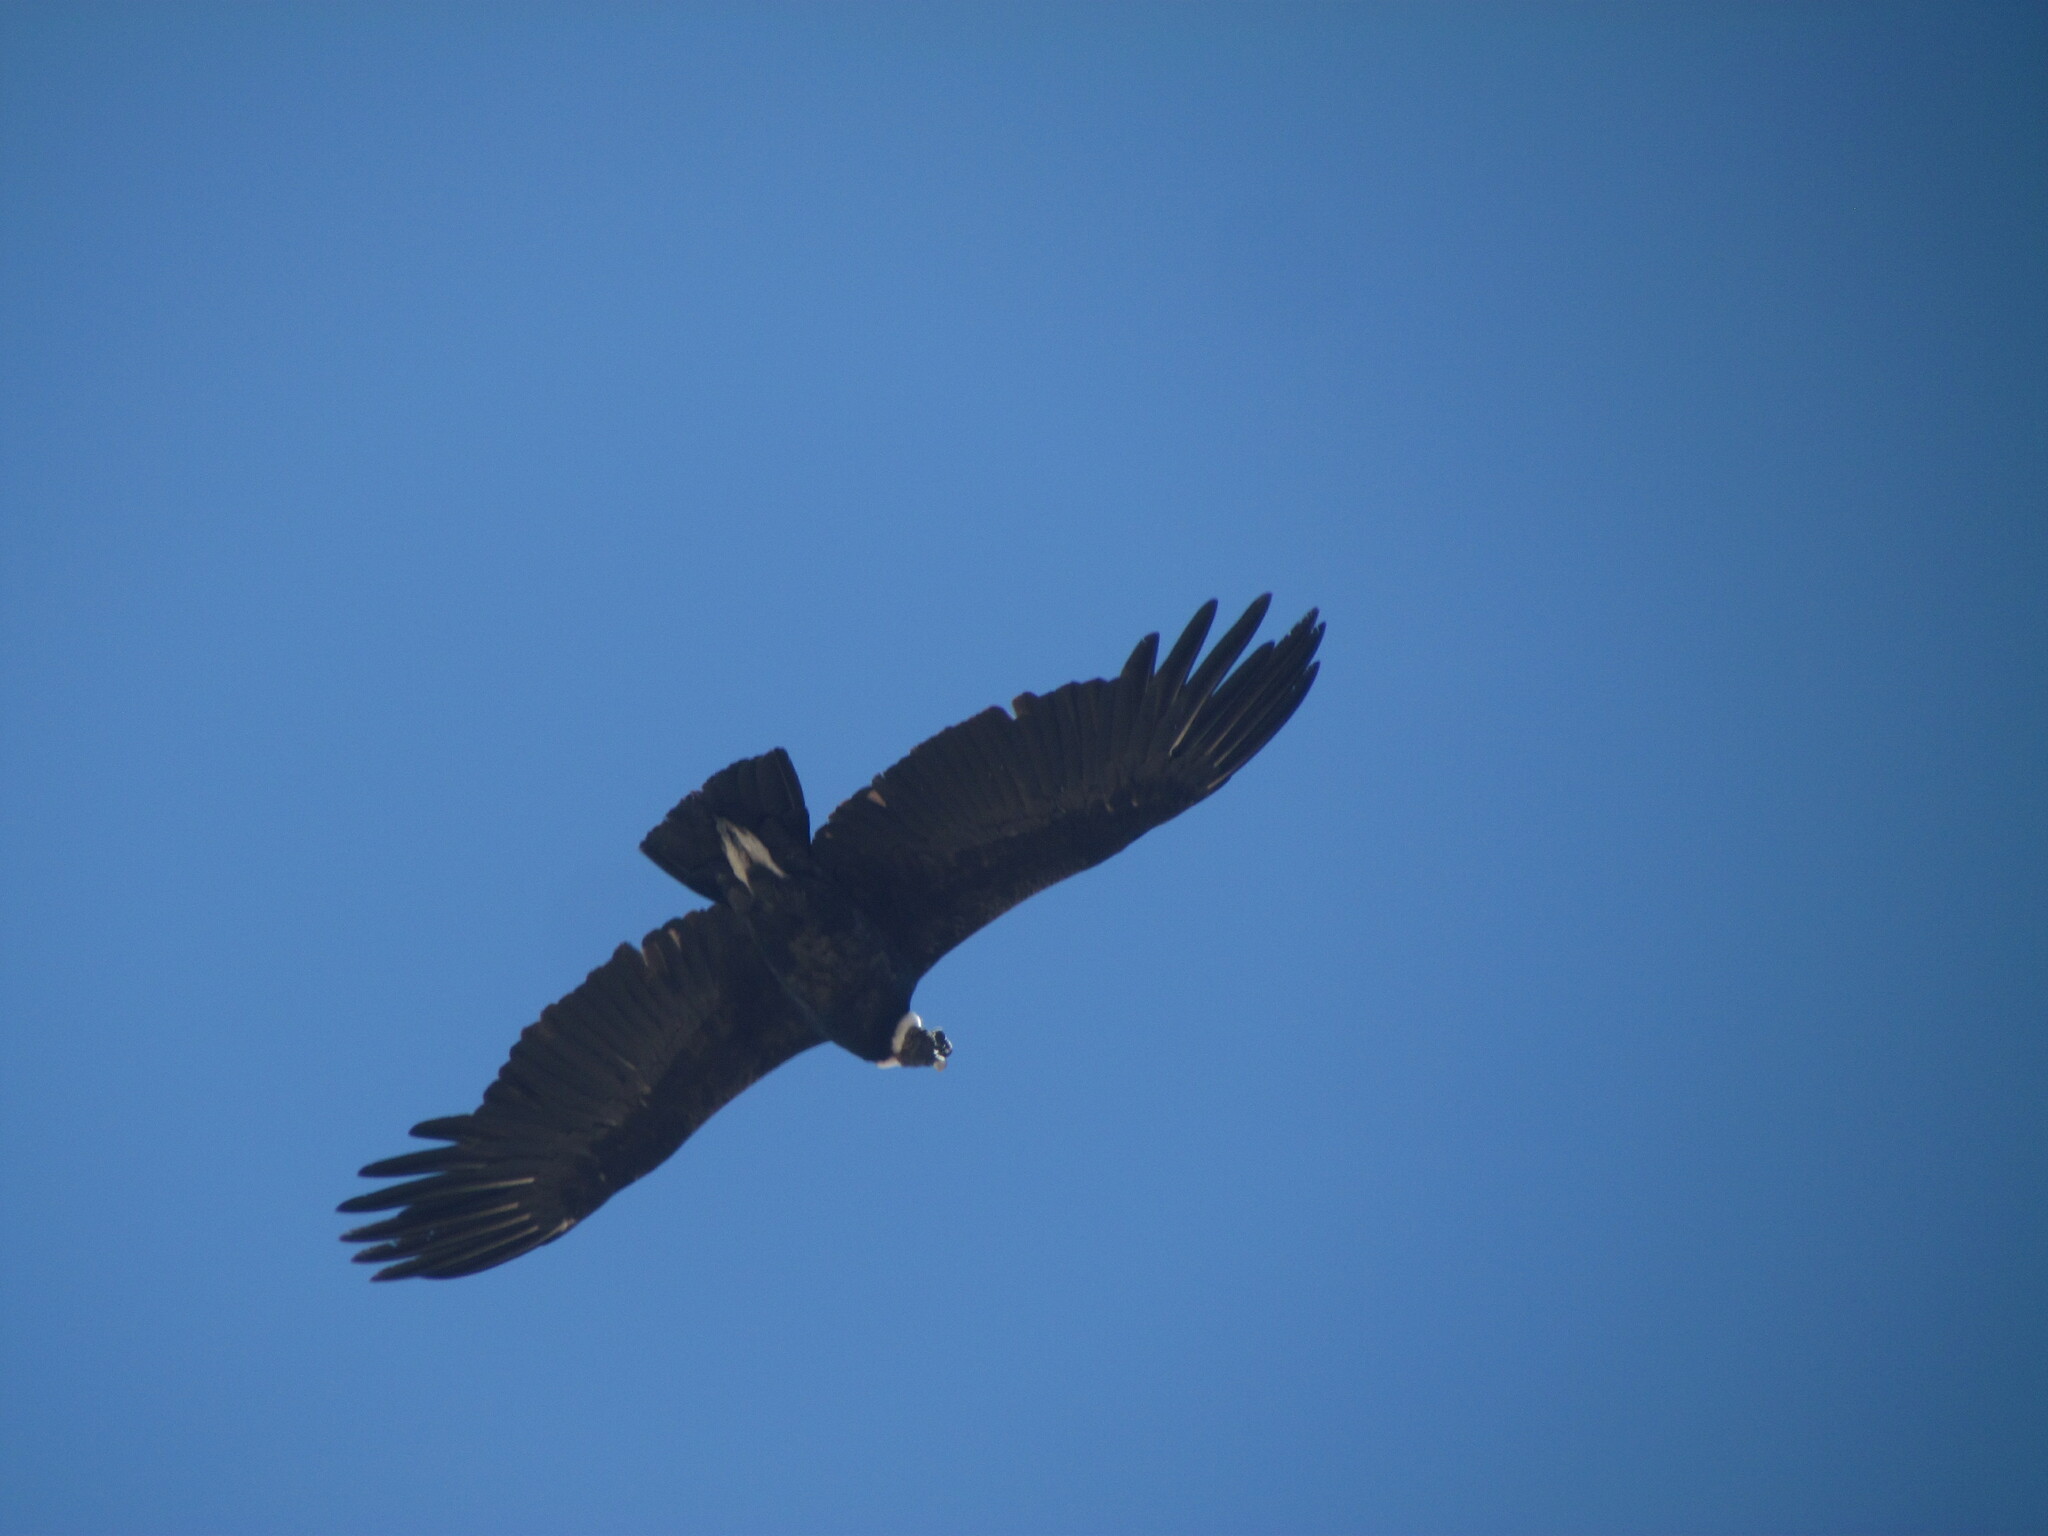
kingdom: Animalia
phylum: Chordata
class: Aves
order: Accipitriformes
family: Cathartidae
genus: Vultur
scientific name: Vultur gryphus
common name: Andean condor
